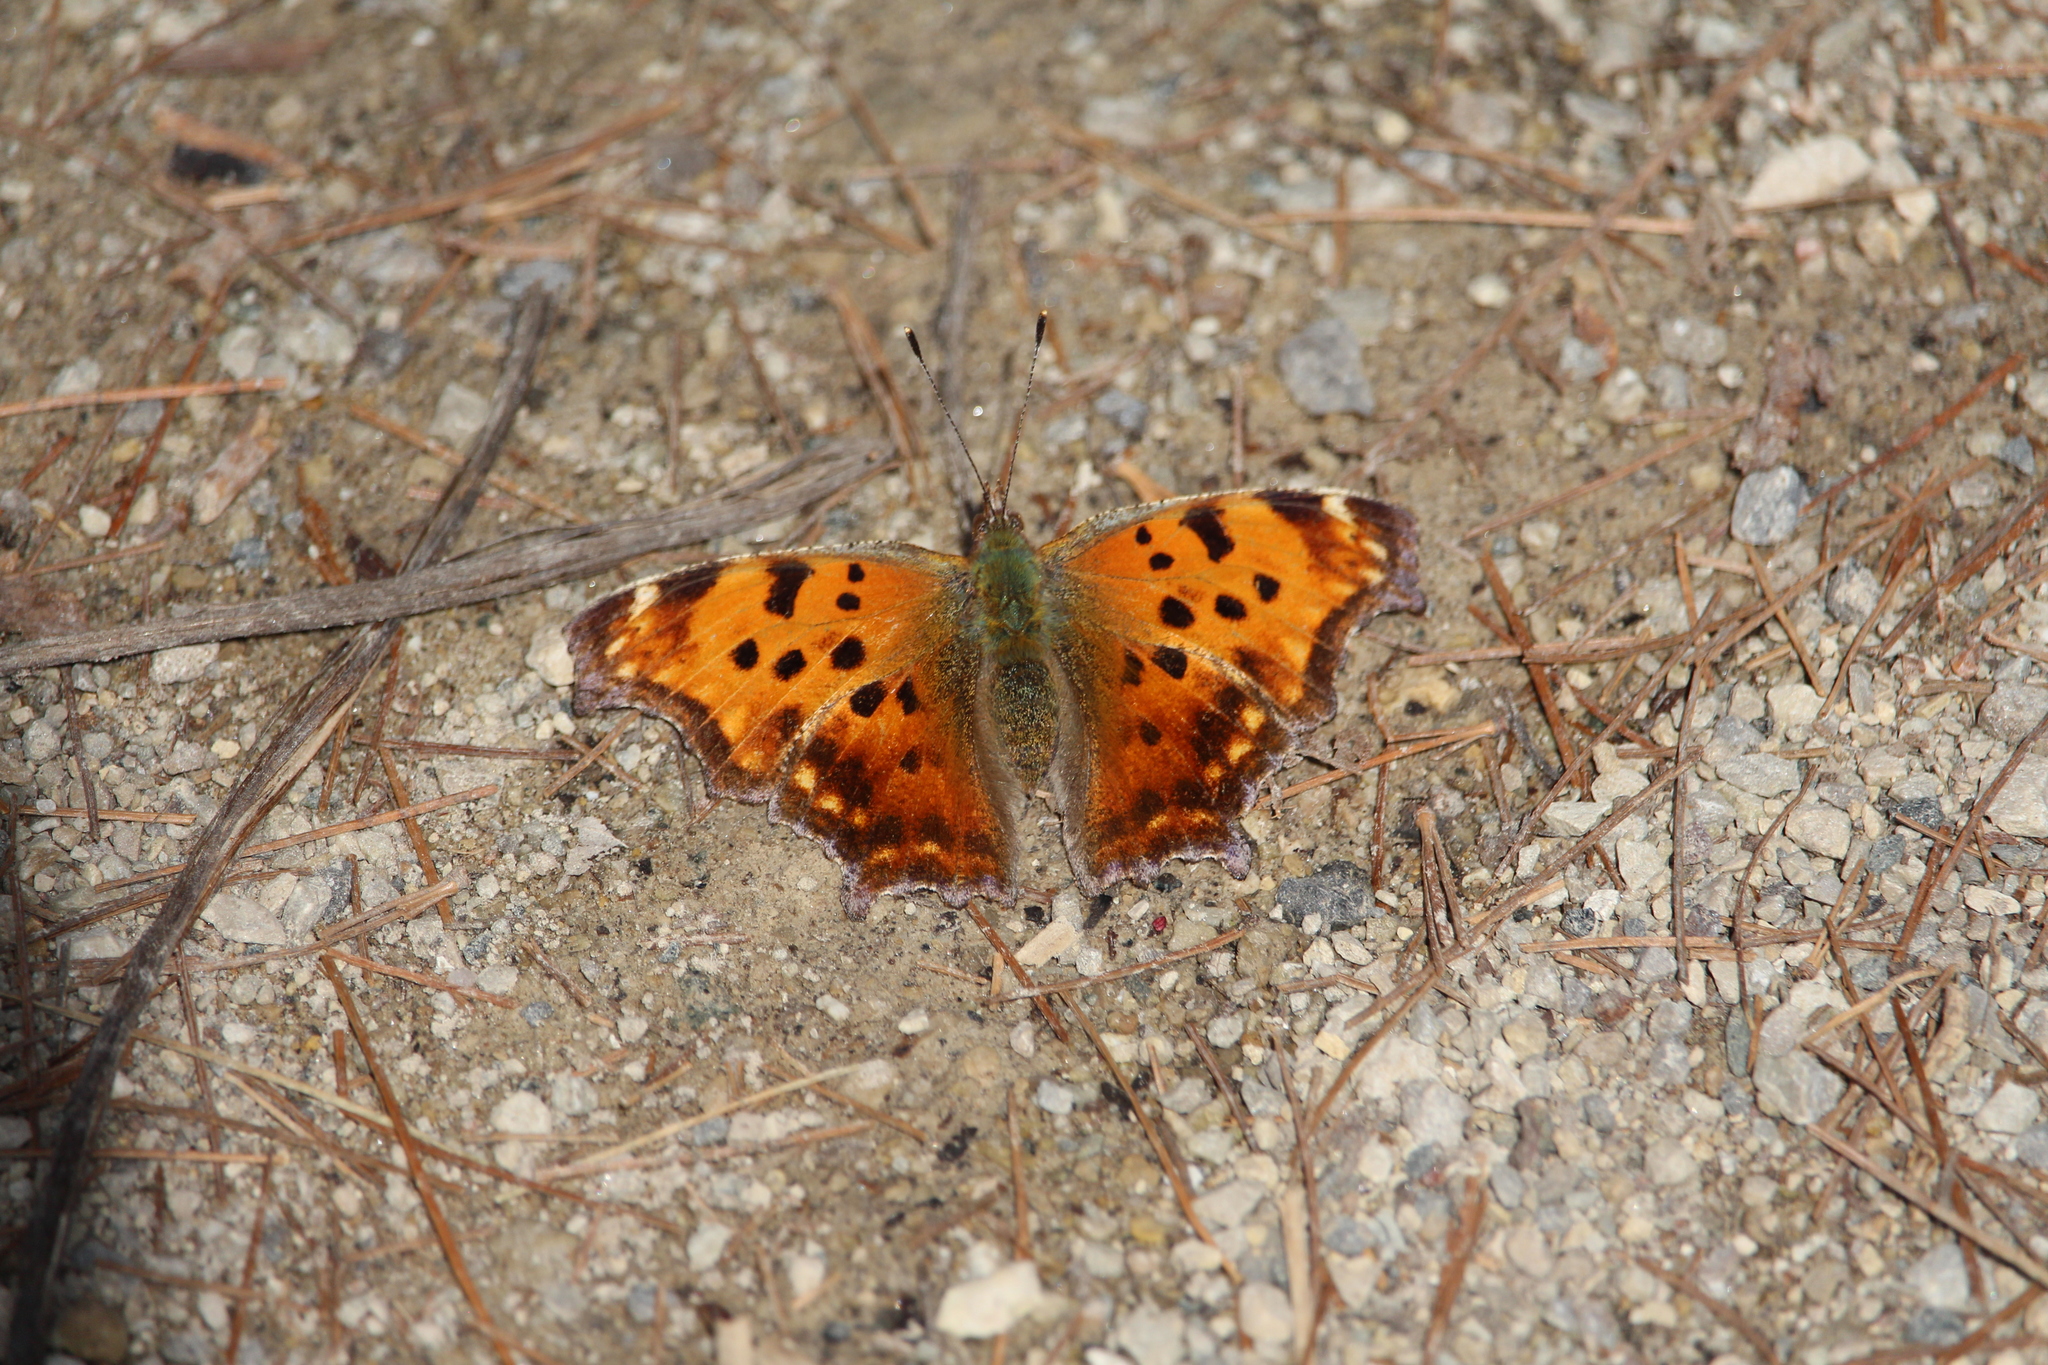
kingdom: Animalia
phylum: Arthropoda
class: Insecta
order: Lepidoptera
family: Nymphalidae
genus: Polygonia
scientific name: Polygonia comma
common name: Eastern comma
